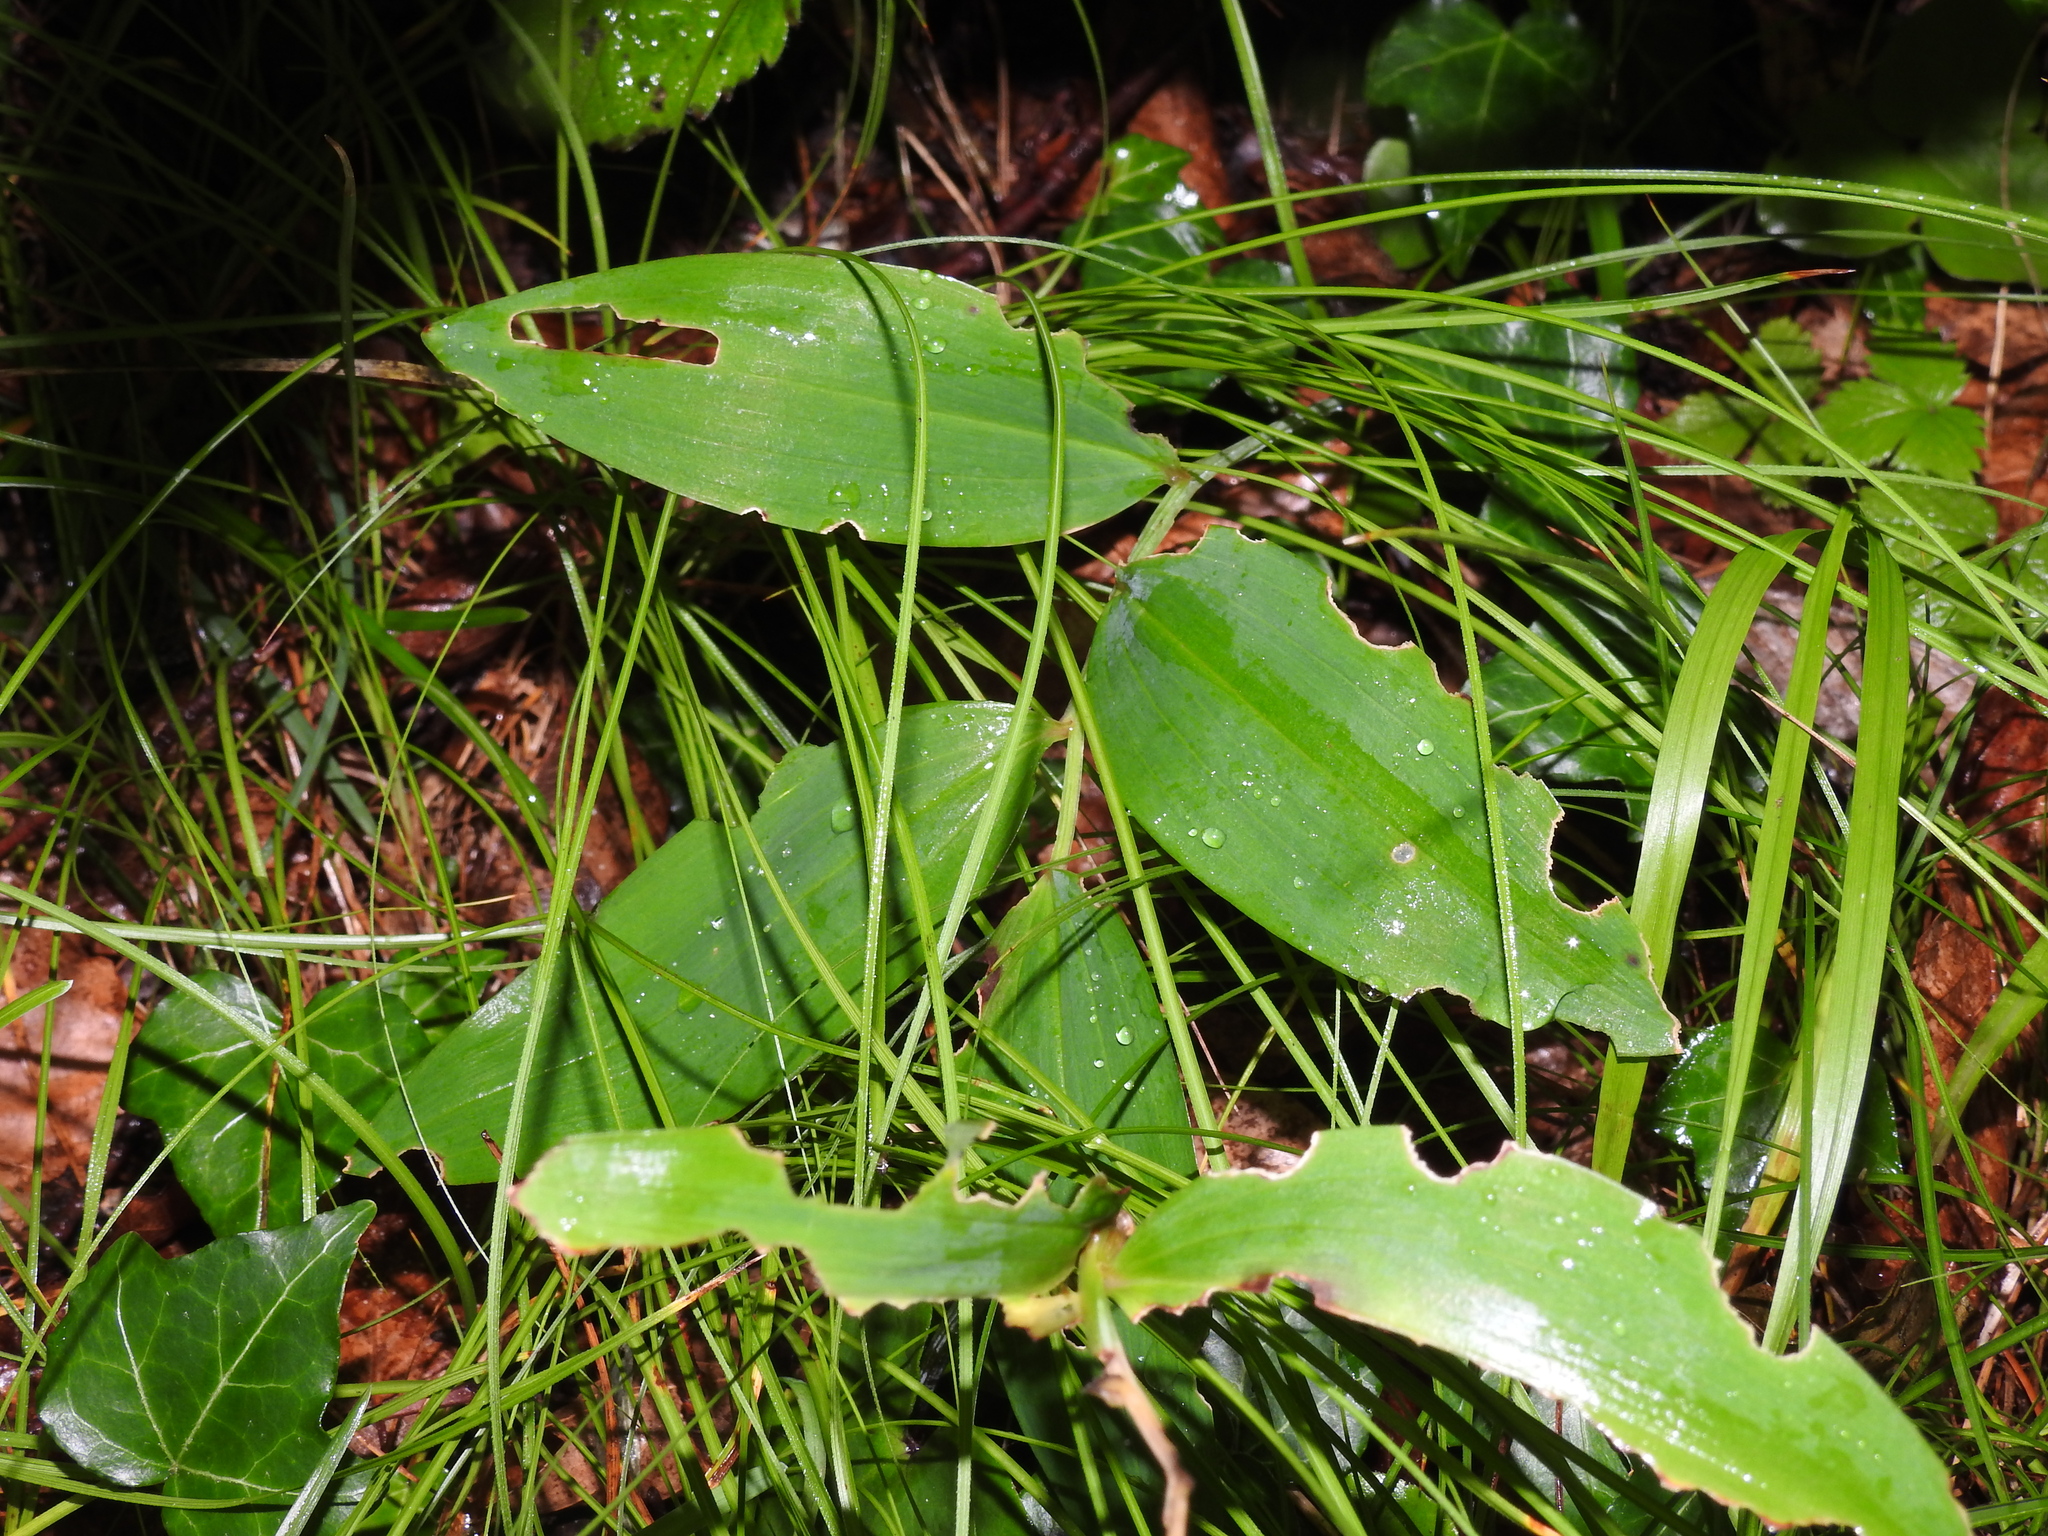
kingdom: Plantae
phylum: Tracheophyta
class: Liliopsida
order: Asparagales
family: Asparagaceae
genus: Convallaria
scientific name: Convallaria majalis
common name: Lily-of-the-valley
